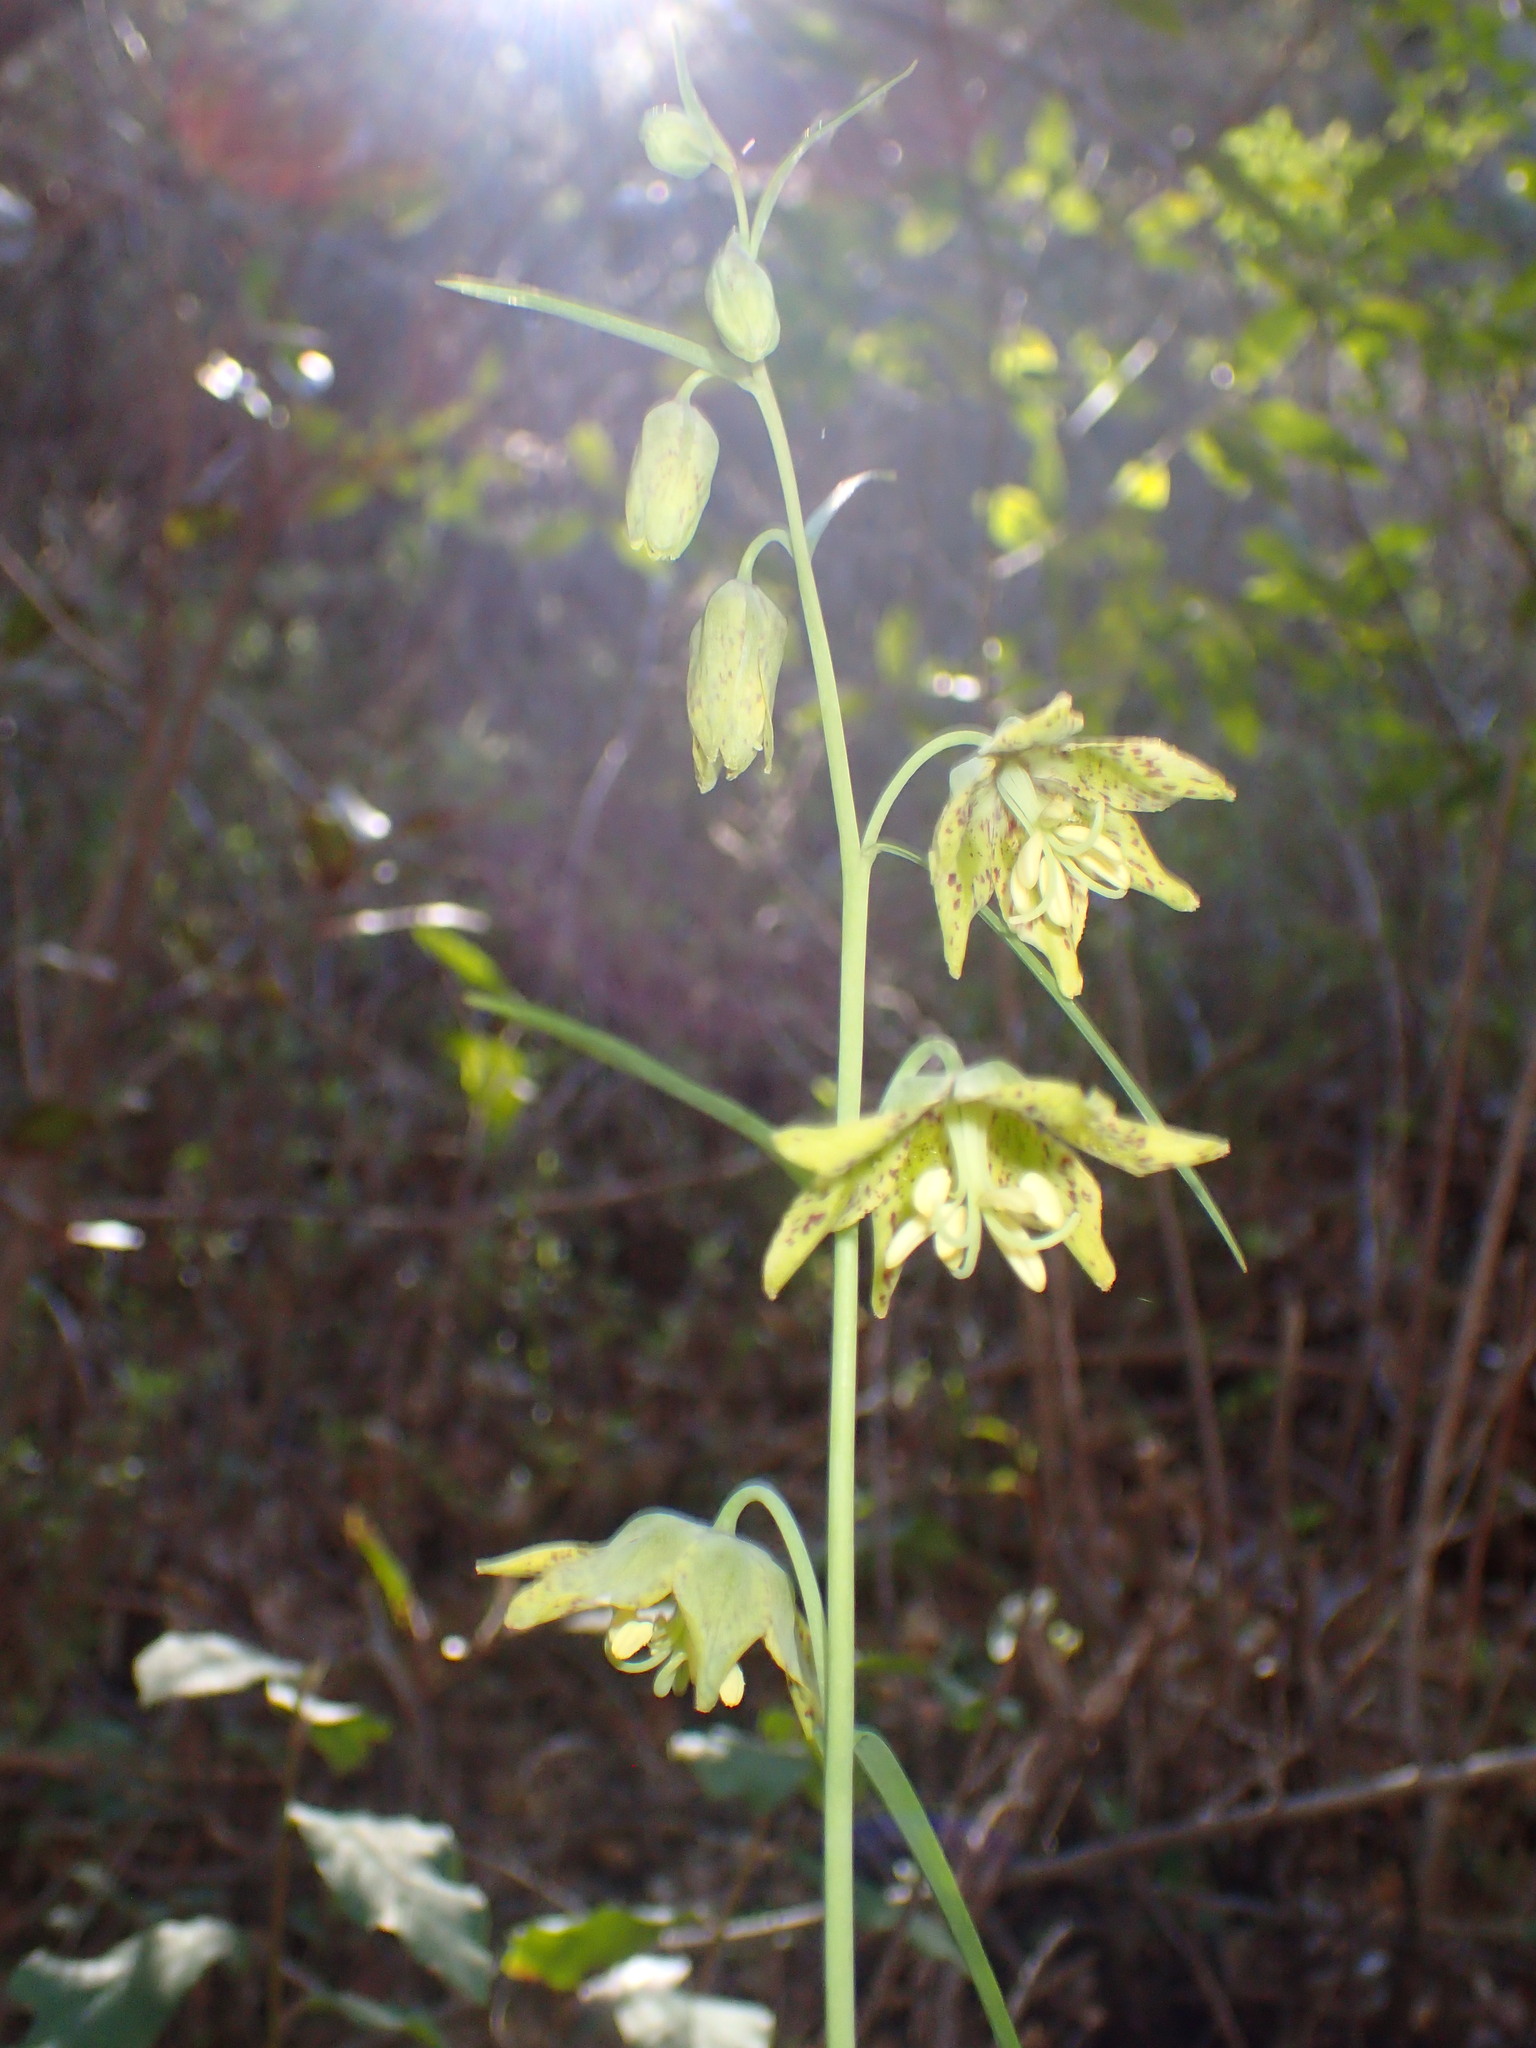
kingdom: Plantae
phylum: Tracheophyta
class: Liliopsida
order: Liliales
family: Liliaceae
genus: Fritillaria
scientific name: Fritillaria ojaiensis
